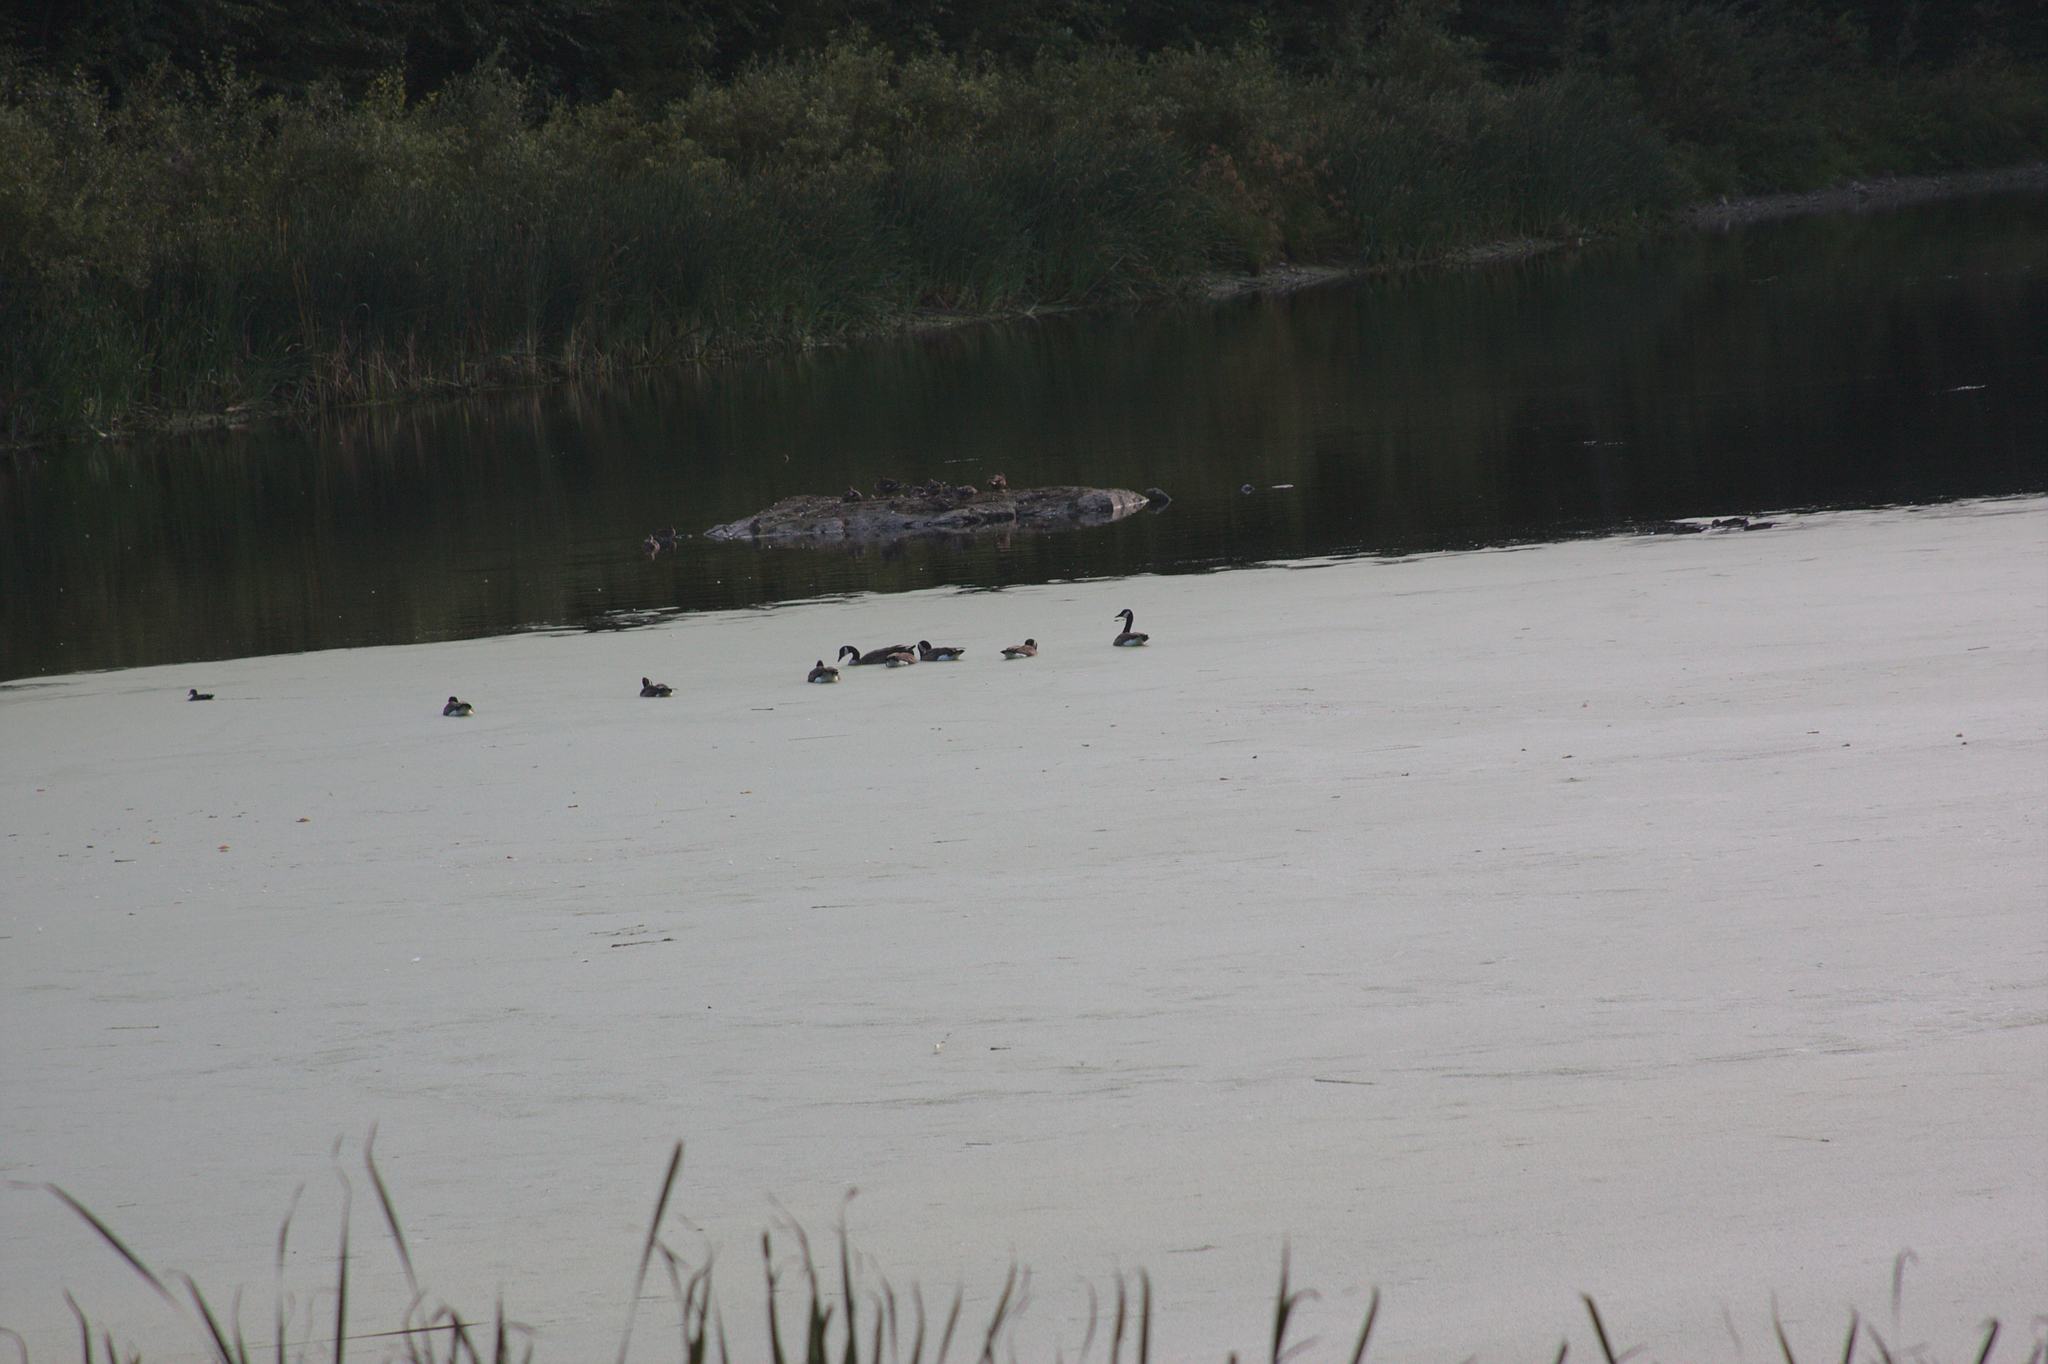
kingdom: Animalia
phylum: Chordata
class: Aves
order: Anseriformes
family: Anatidae
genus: Branta
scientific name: Branta canadensis
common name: Canada goose
